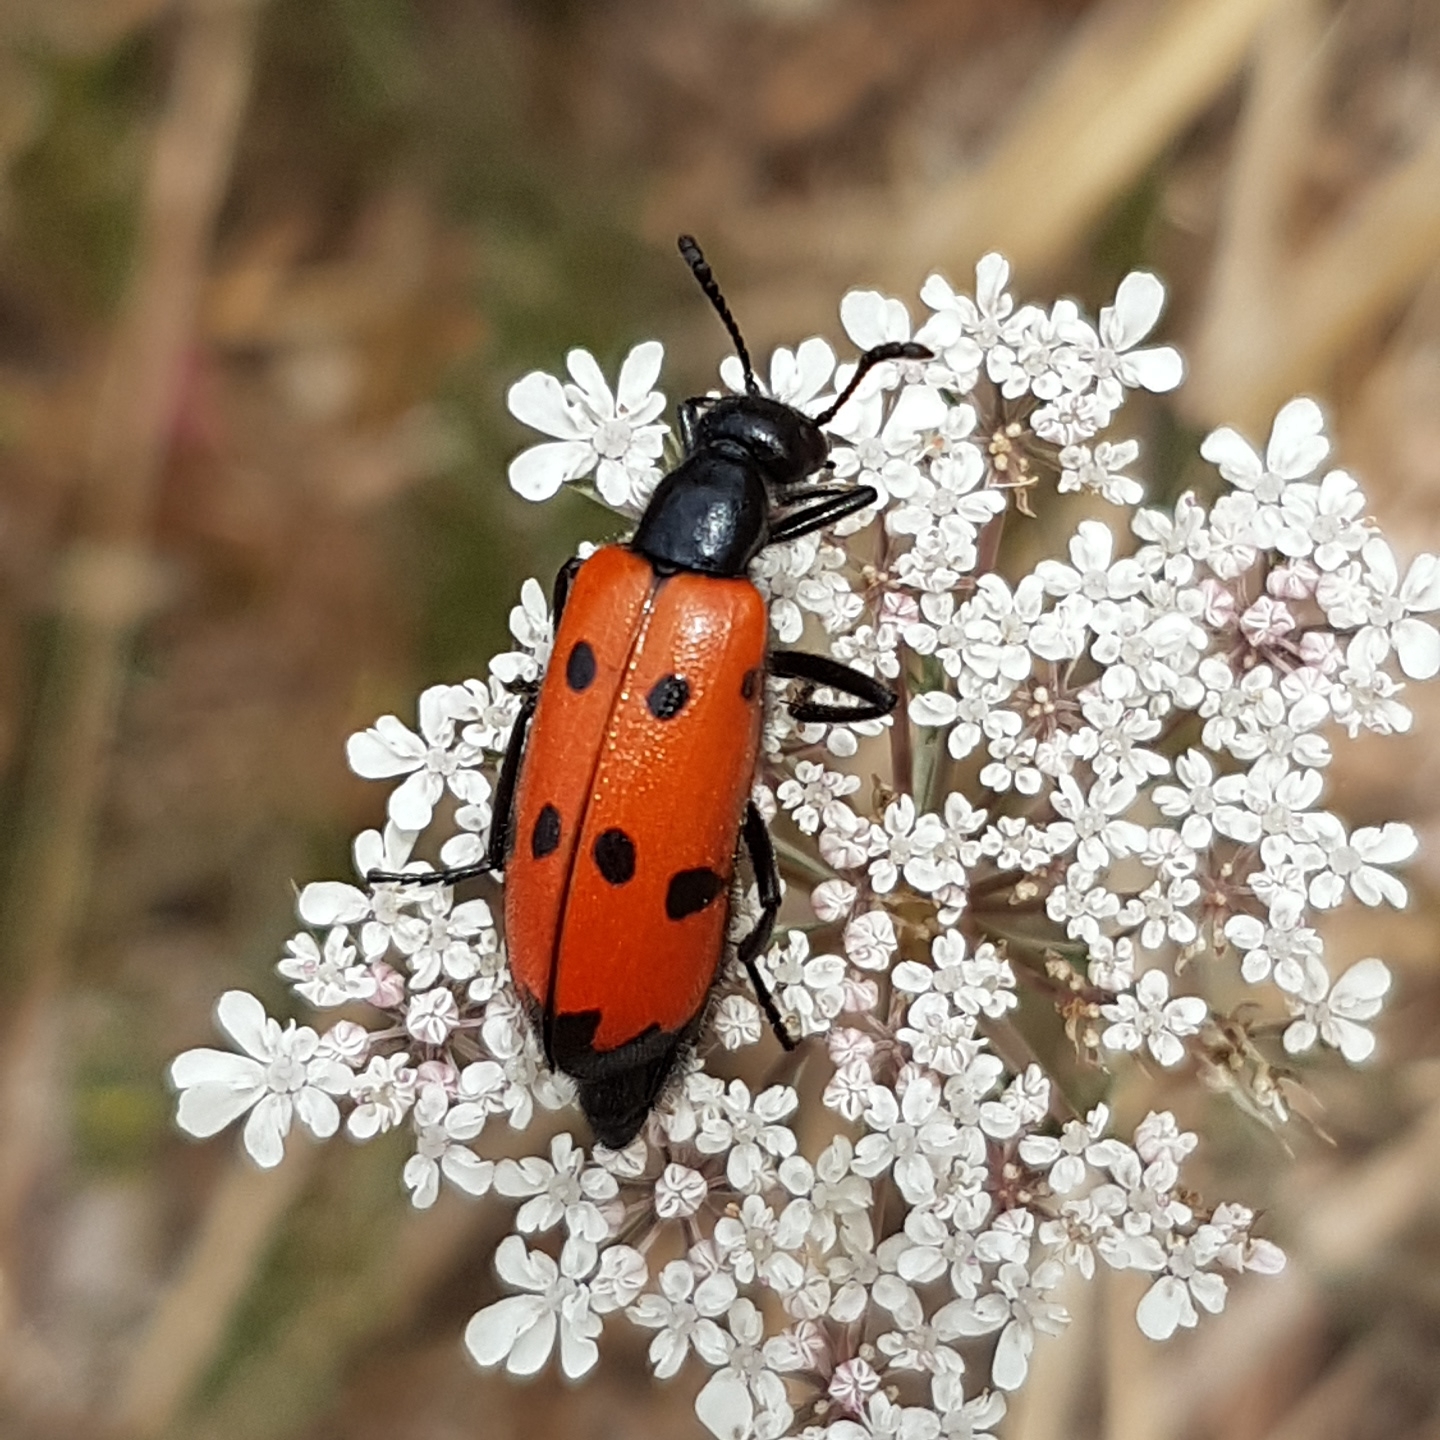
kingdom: Animalia
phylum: Arthropoda
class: Insecta
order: Coleoptera
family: Meloidae
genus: Mylabris
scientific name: Mylabris quadripunctata
